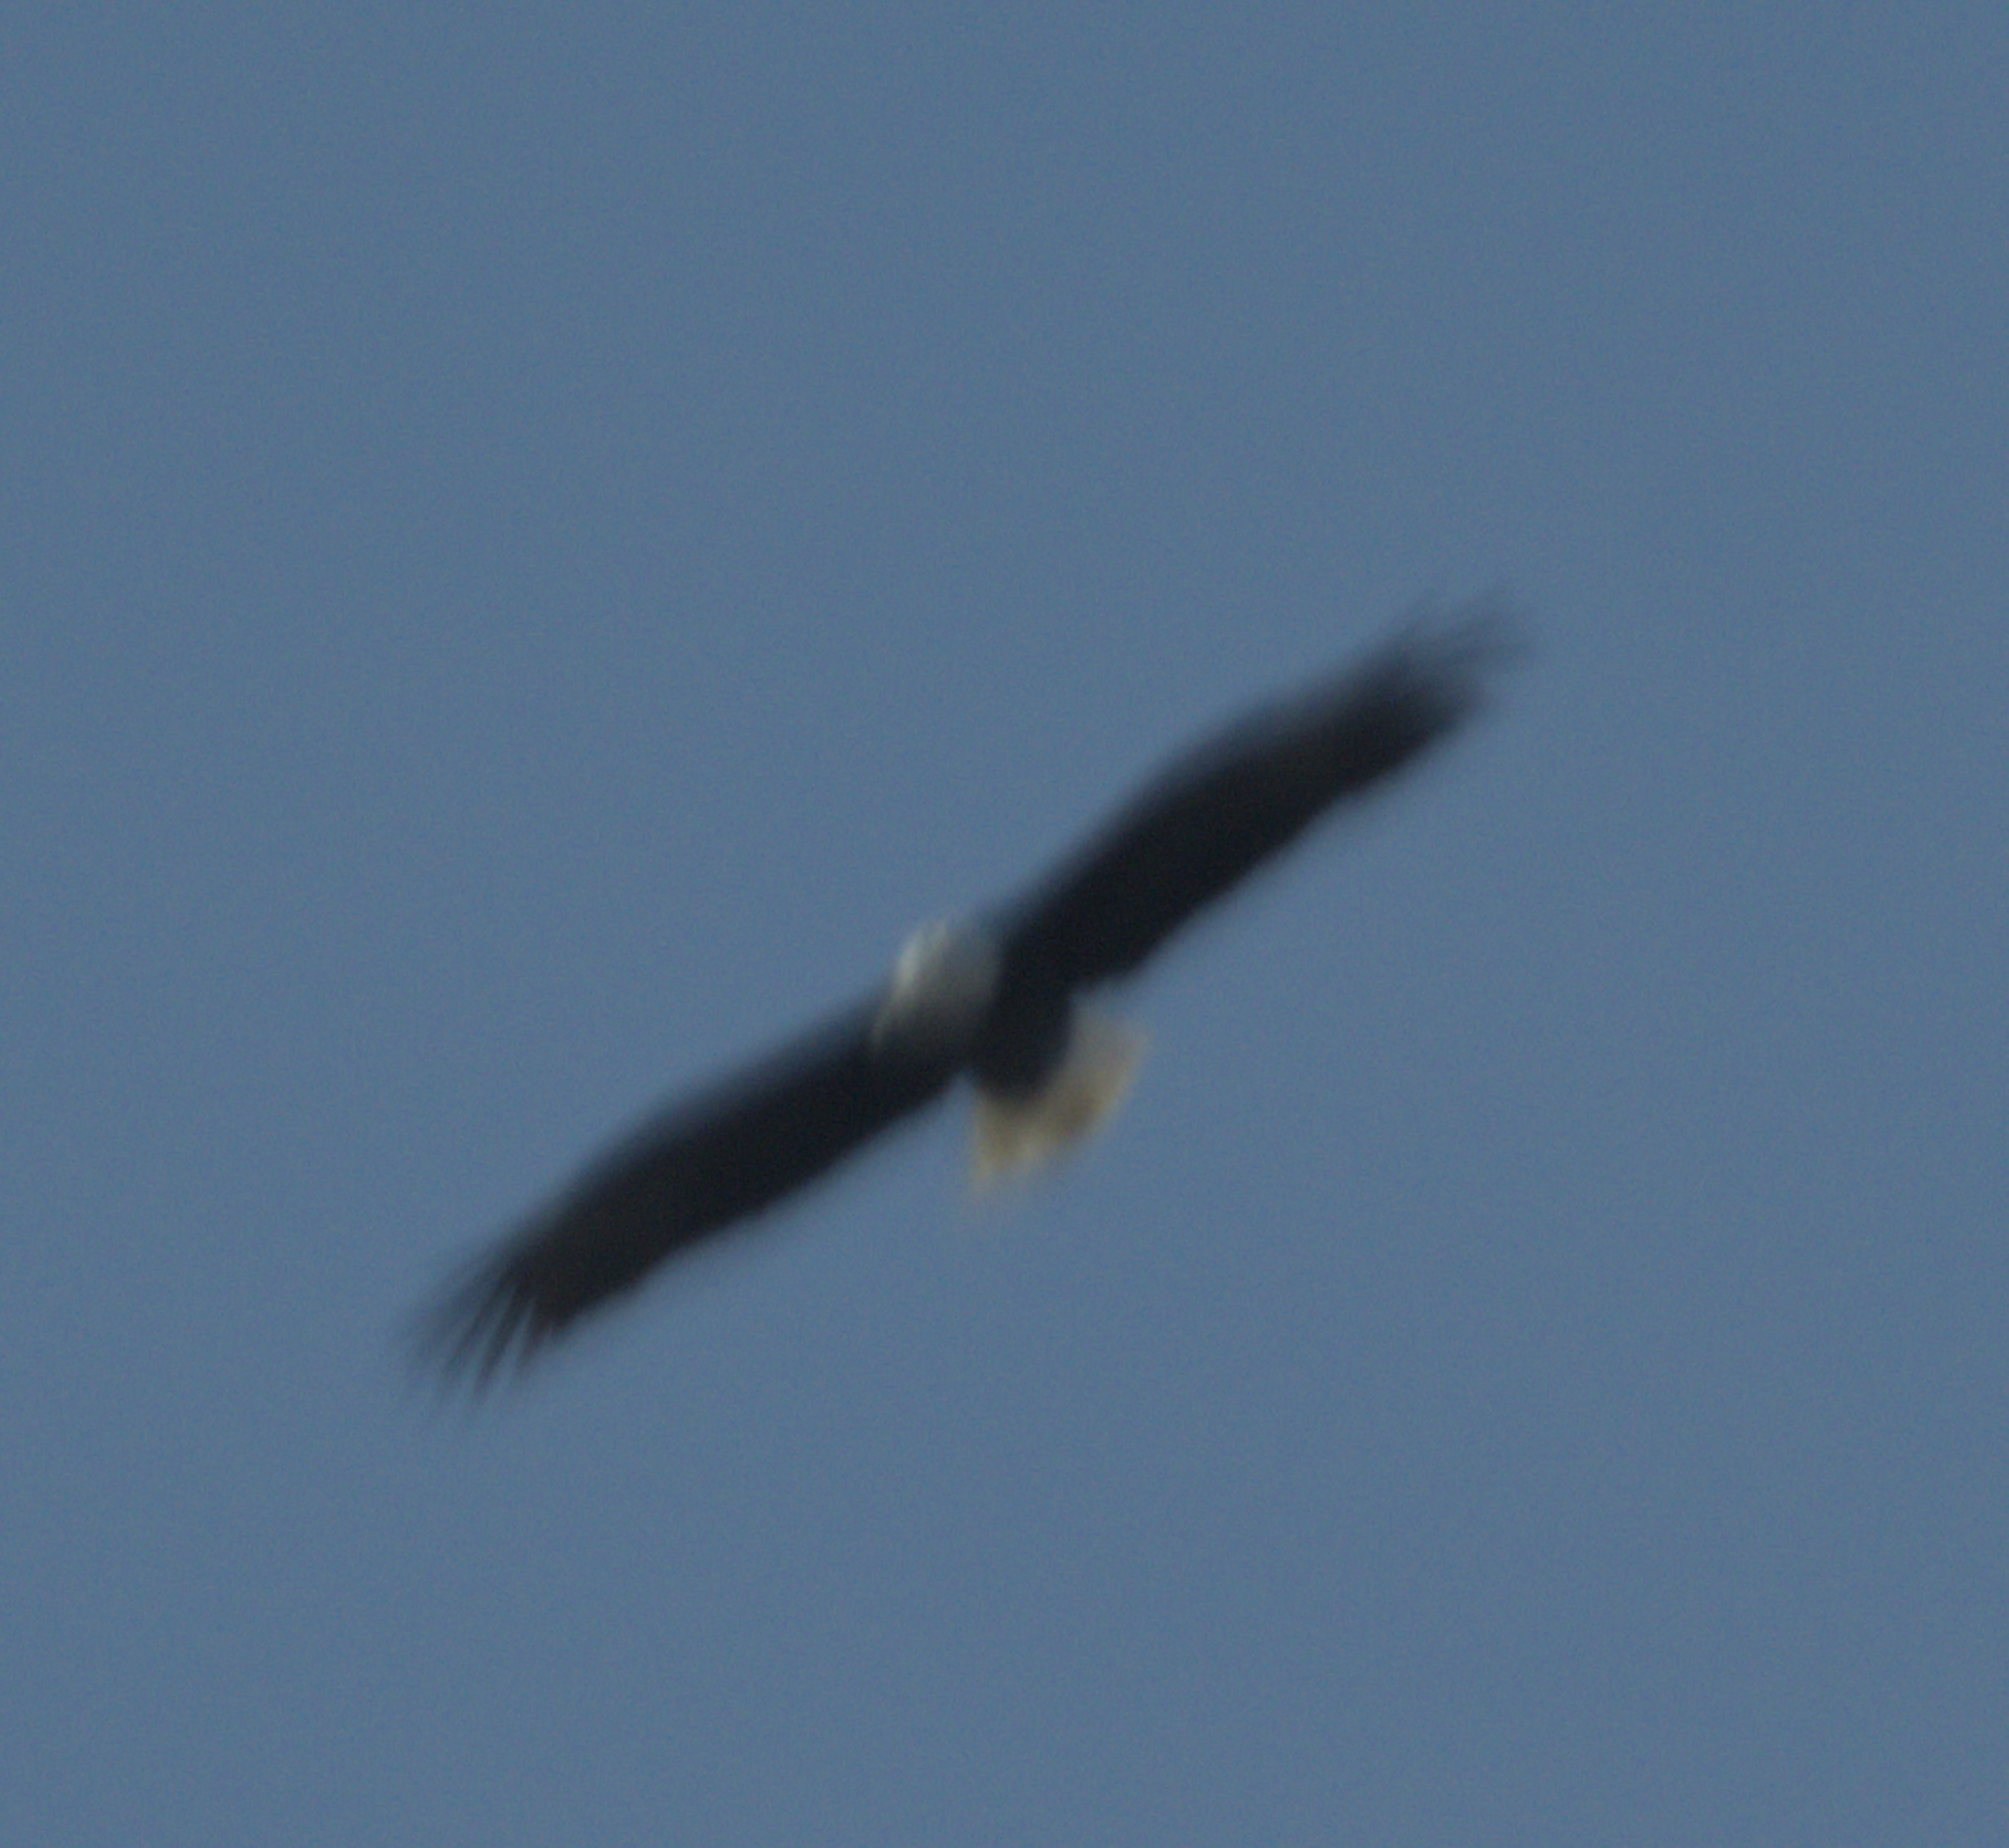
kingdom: Animalia
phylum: Chordata
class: Aves
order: Accipitriformes
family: Accipitridae
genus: Haliaeetus
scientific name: Haliaeetus leucocephalus
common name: Bald eagle
